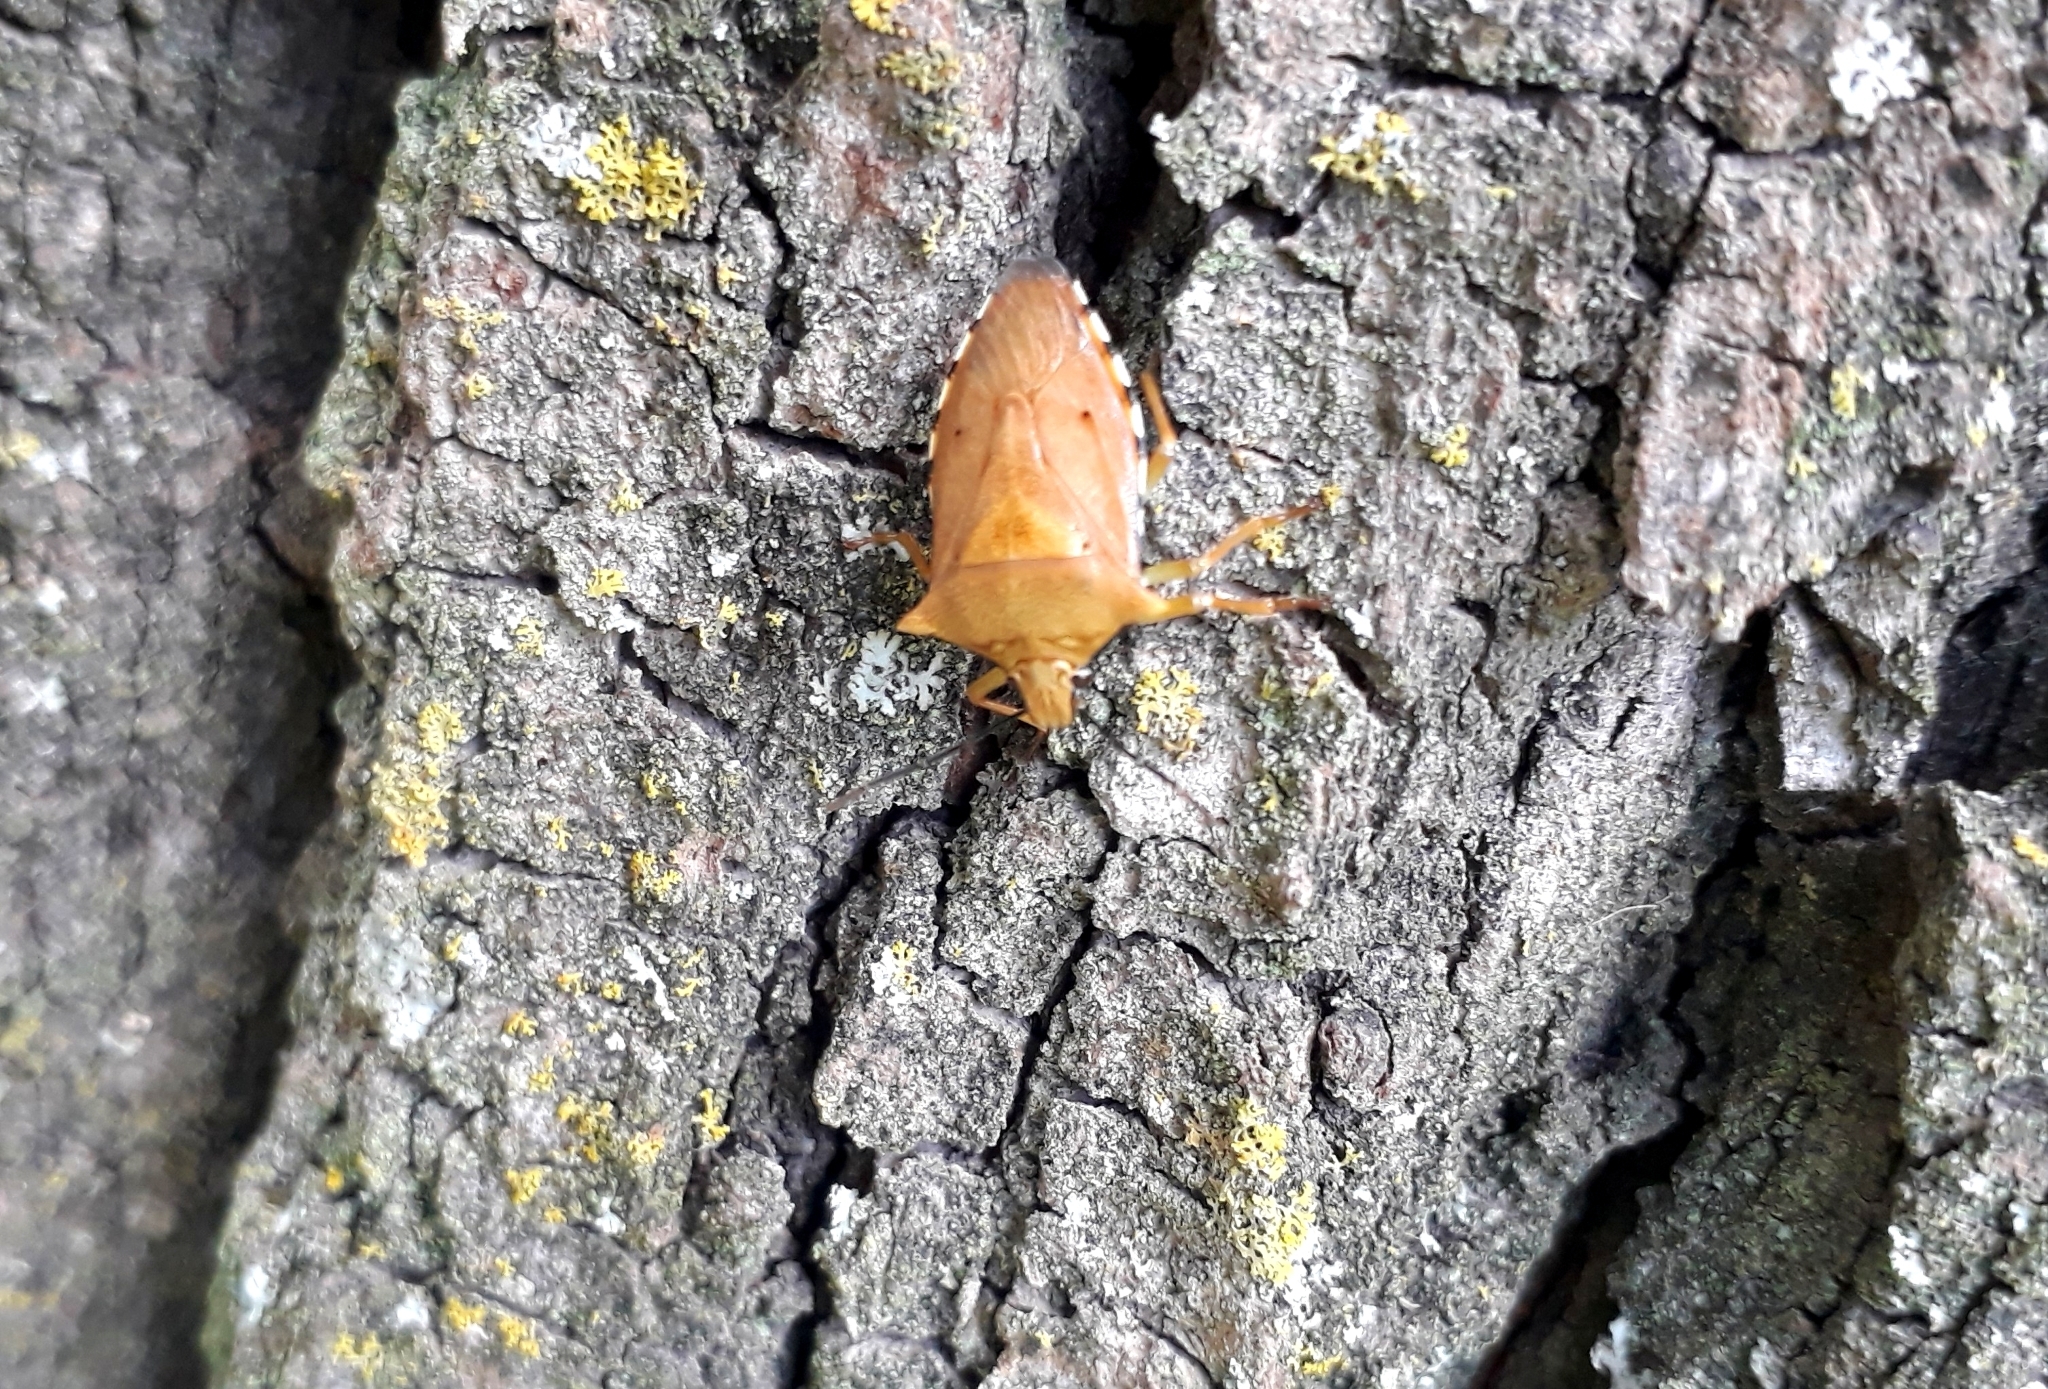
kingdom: Animalia
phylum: Arthropoda
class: Insecta
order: Hemiptera
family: Pentatomidae
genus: Brontocoris
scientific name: Brontocoris tabidus
